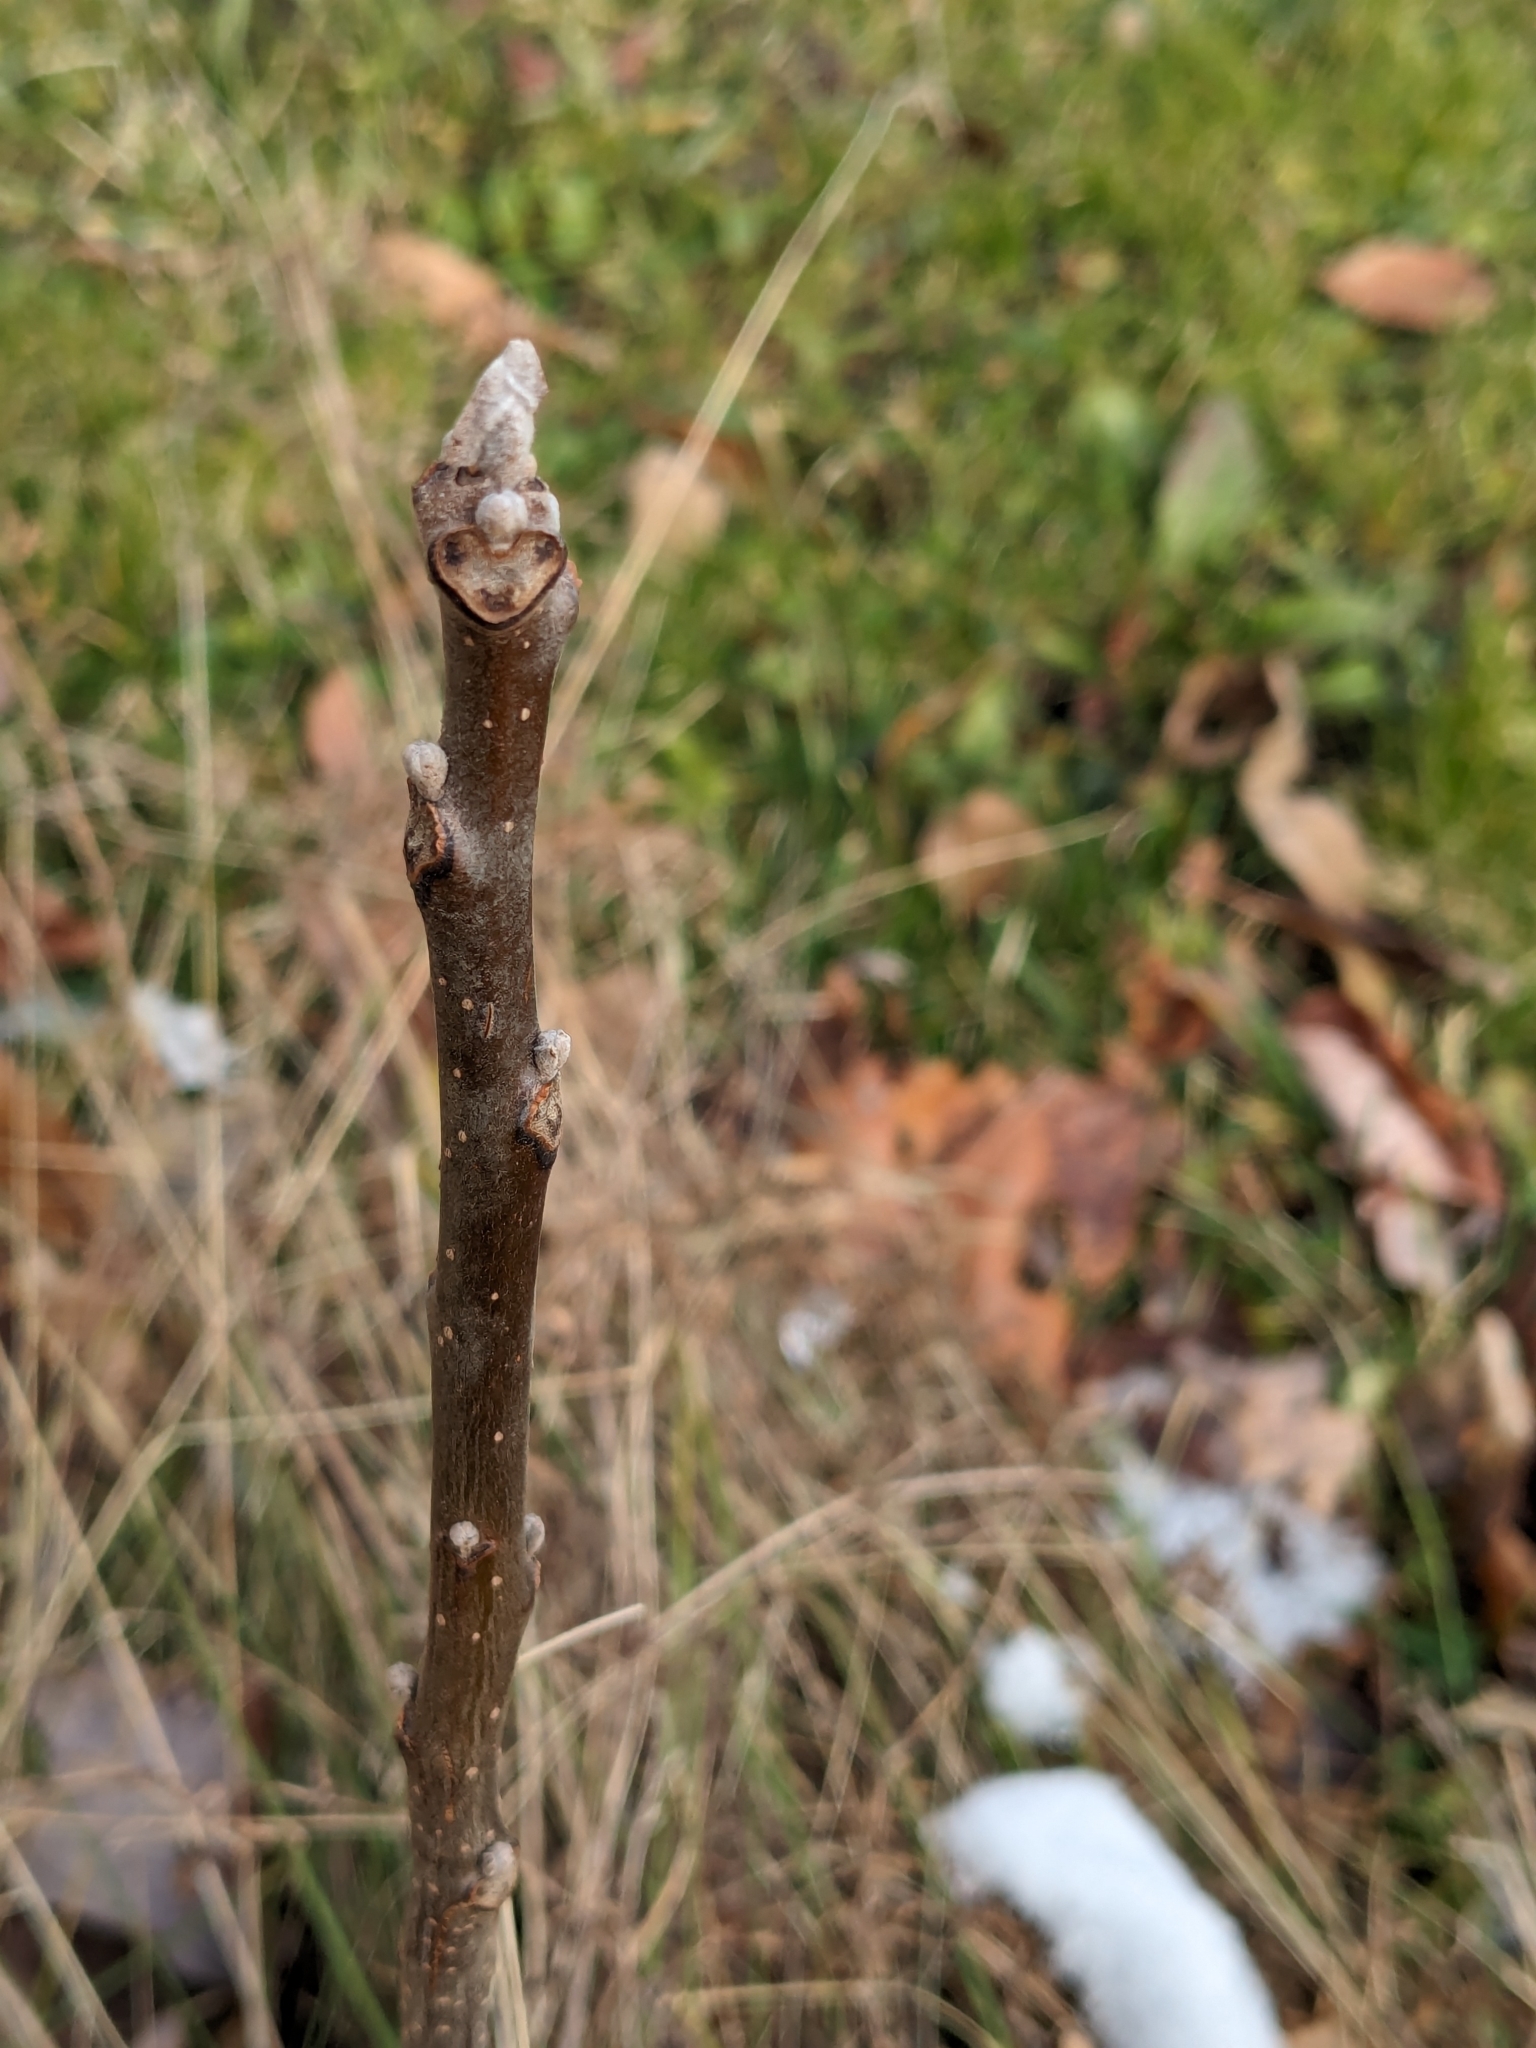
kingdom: Plantae
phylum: Tracheophyta
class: Magnoliopsida
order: Fagales
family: Juglandaceae
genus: Juglans
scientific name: Juglans nigra
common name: Black walnut
